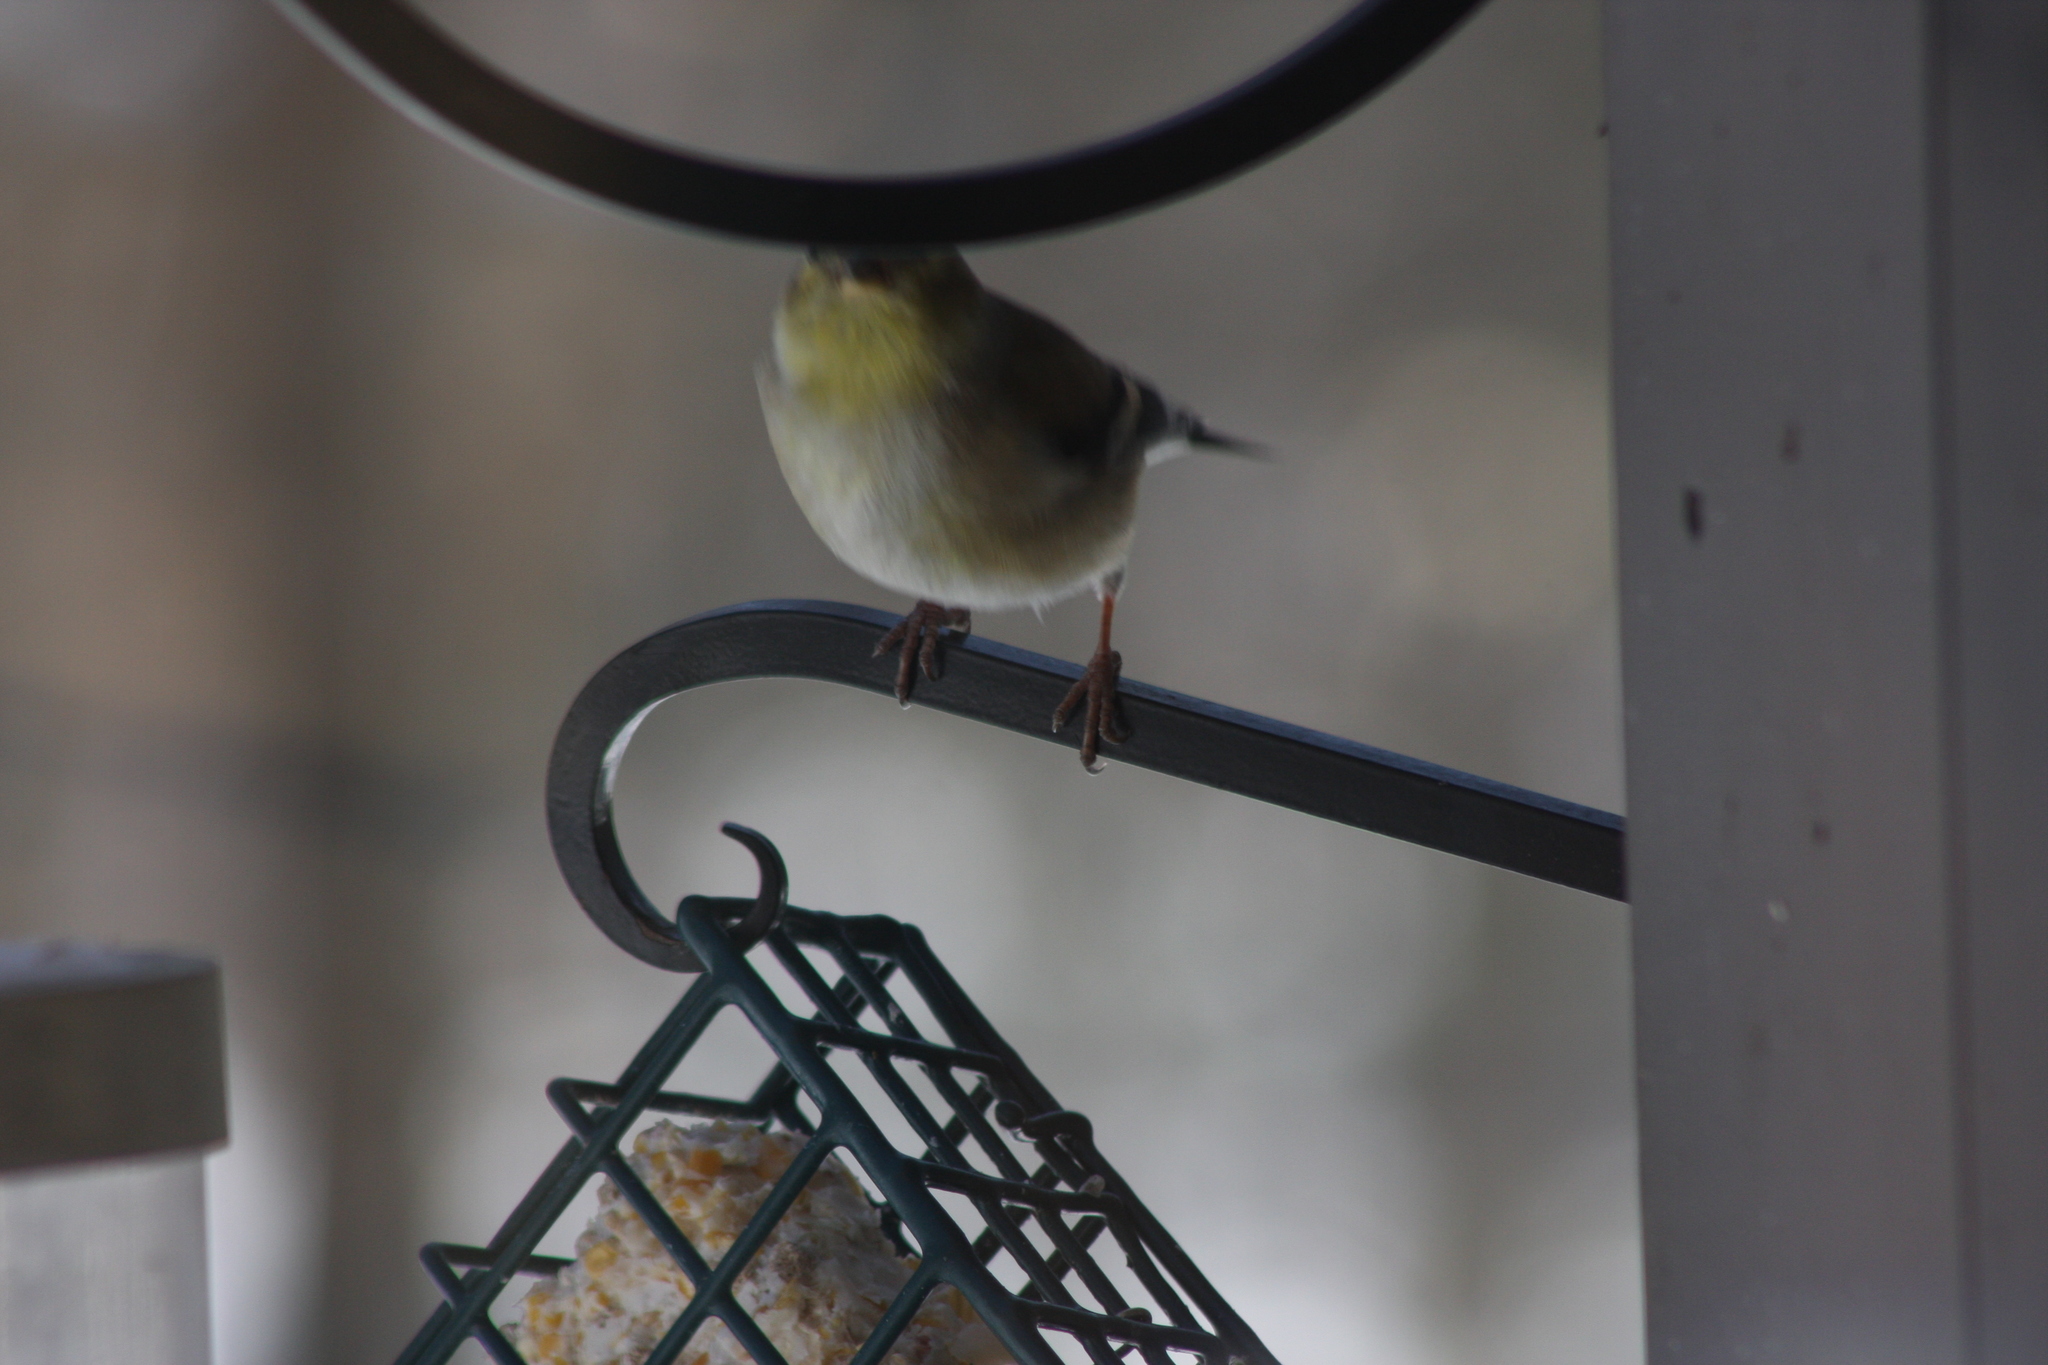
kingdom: Animalia
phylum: Chordata
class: Aves
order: Passeriformes
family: Fringillidae
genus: Spinus
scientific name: Spinus tristis
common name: American goldfinch
